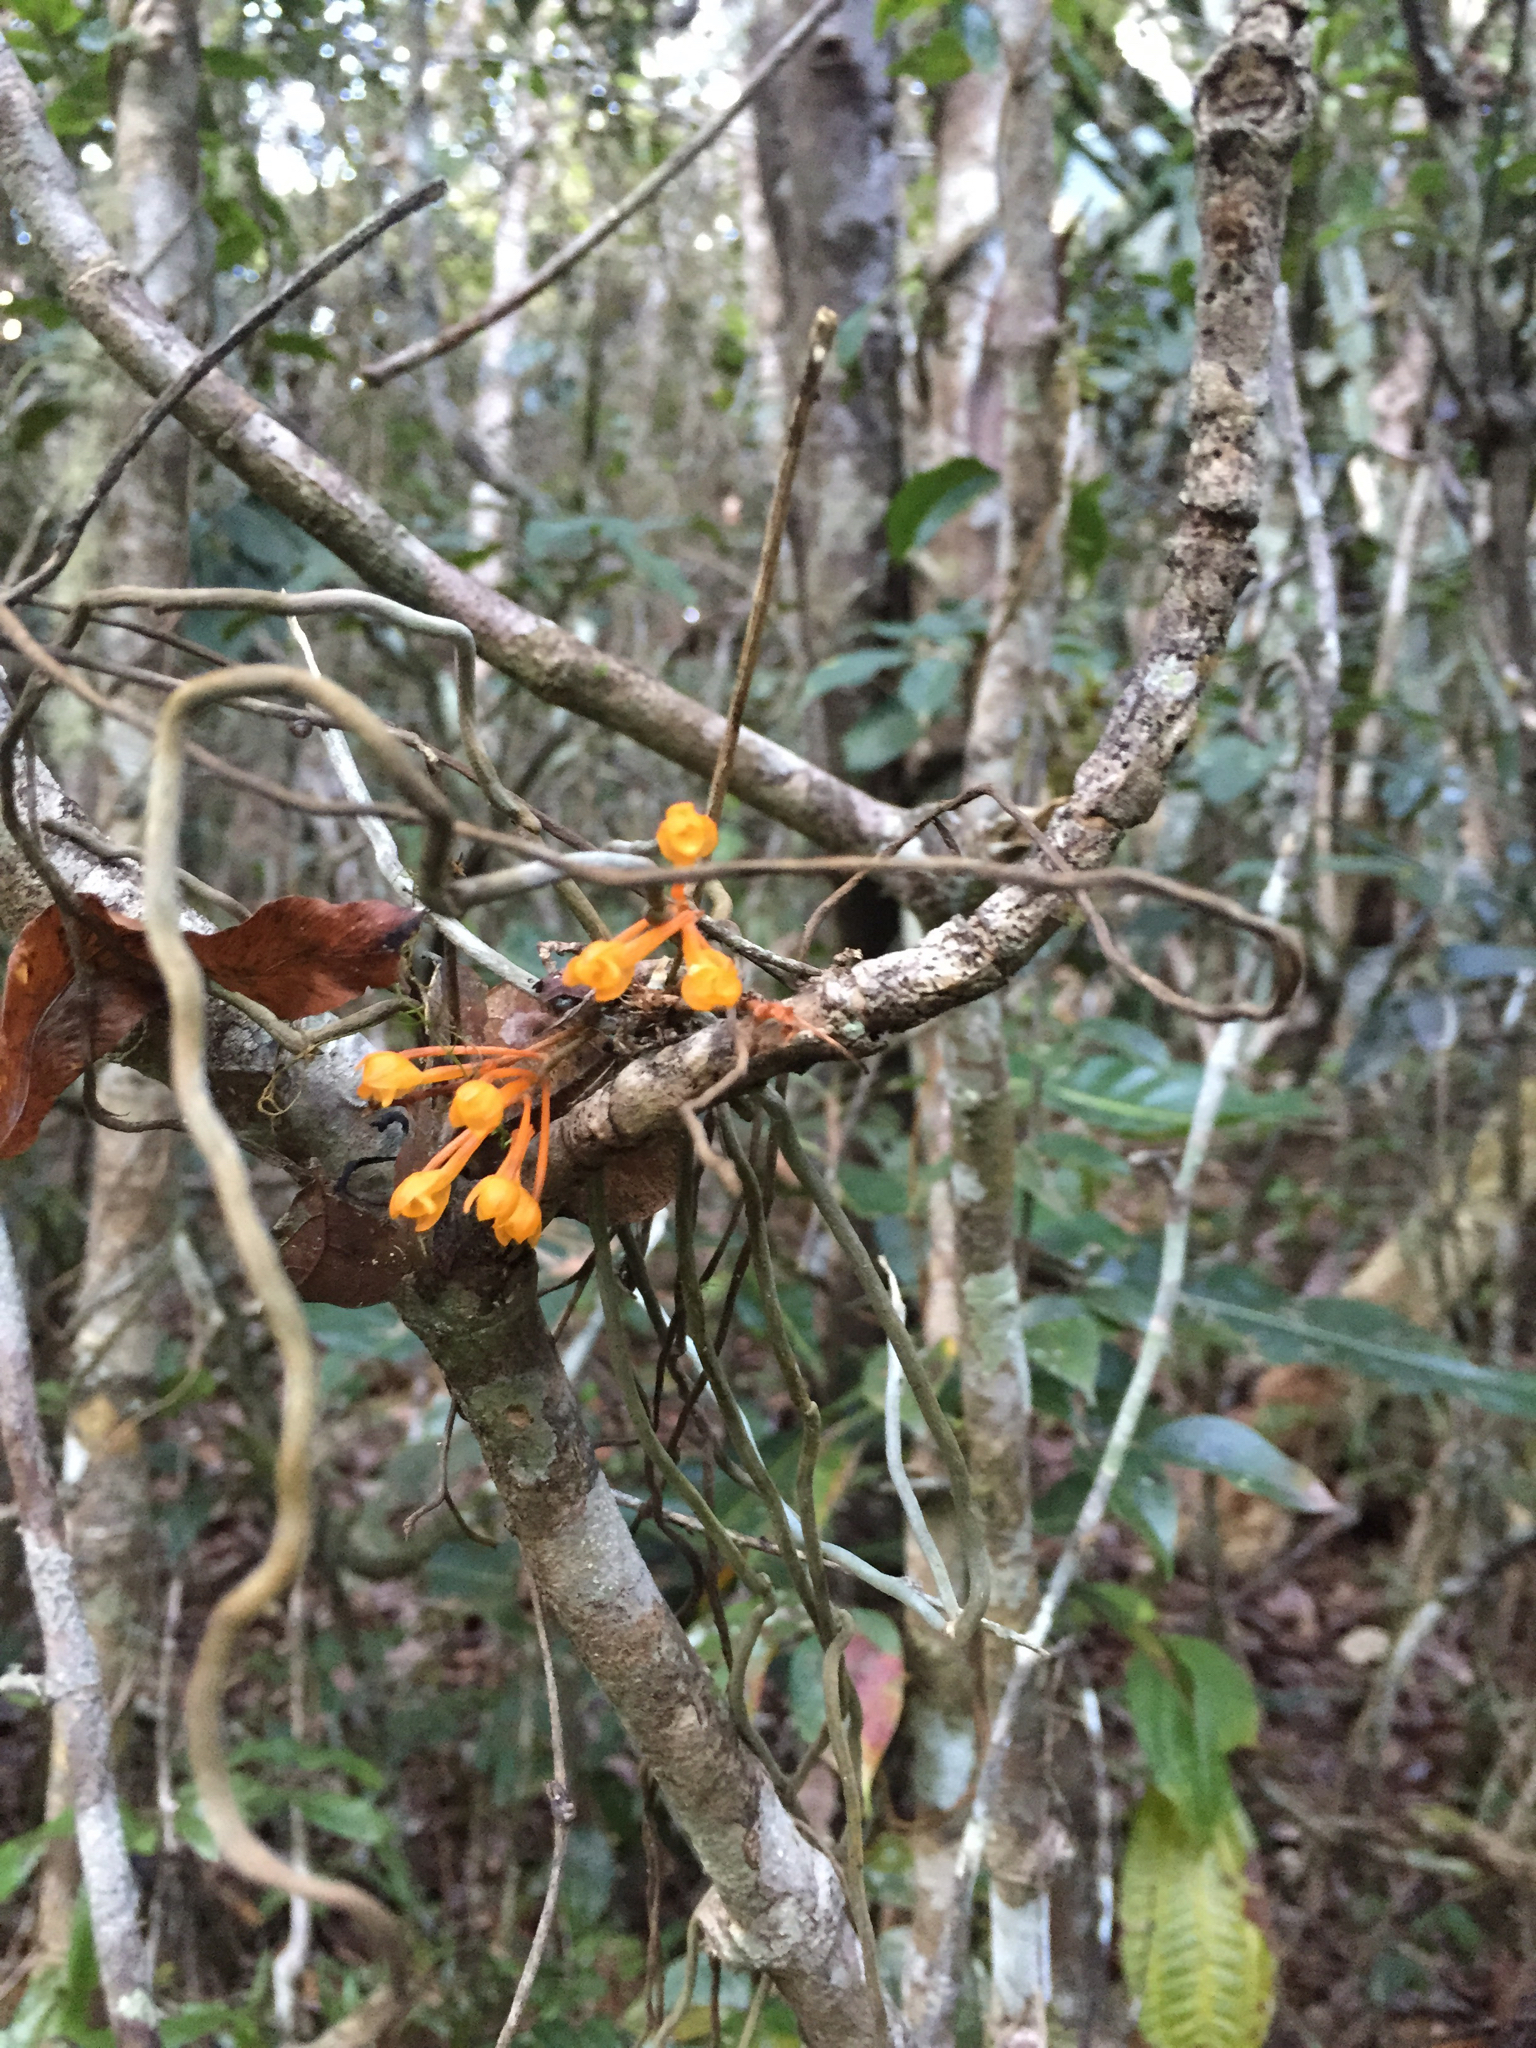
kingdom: Plantae
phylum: Tracheophyta
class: Liliopsida
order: Asparagales
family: Orchidaceae
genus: Microcoelia
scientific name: Microcoelia gilpiniae
